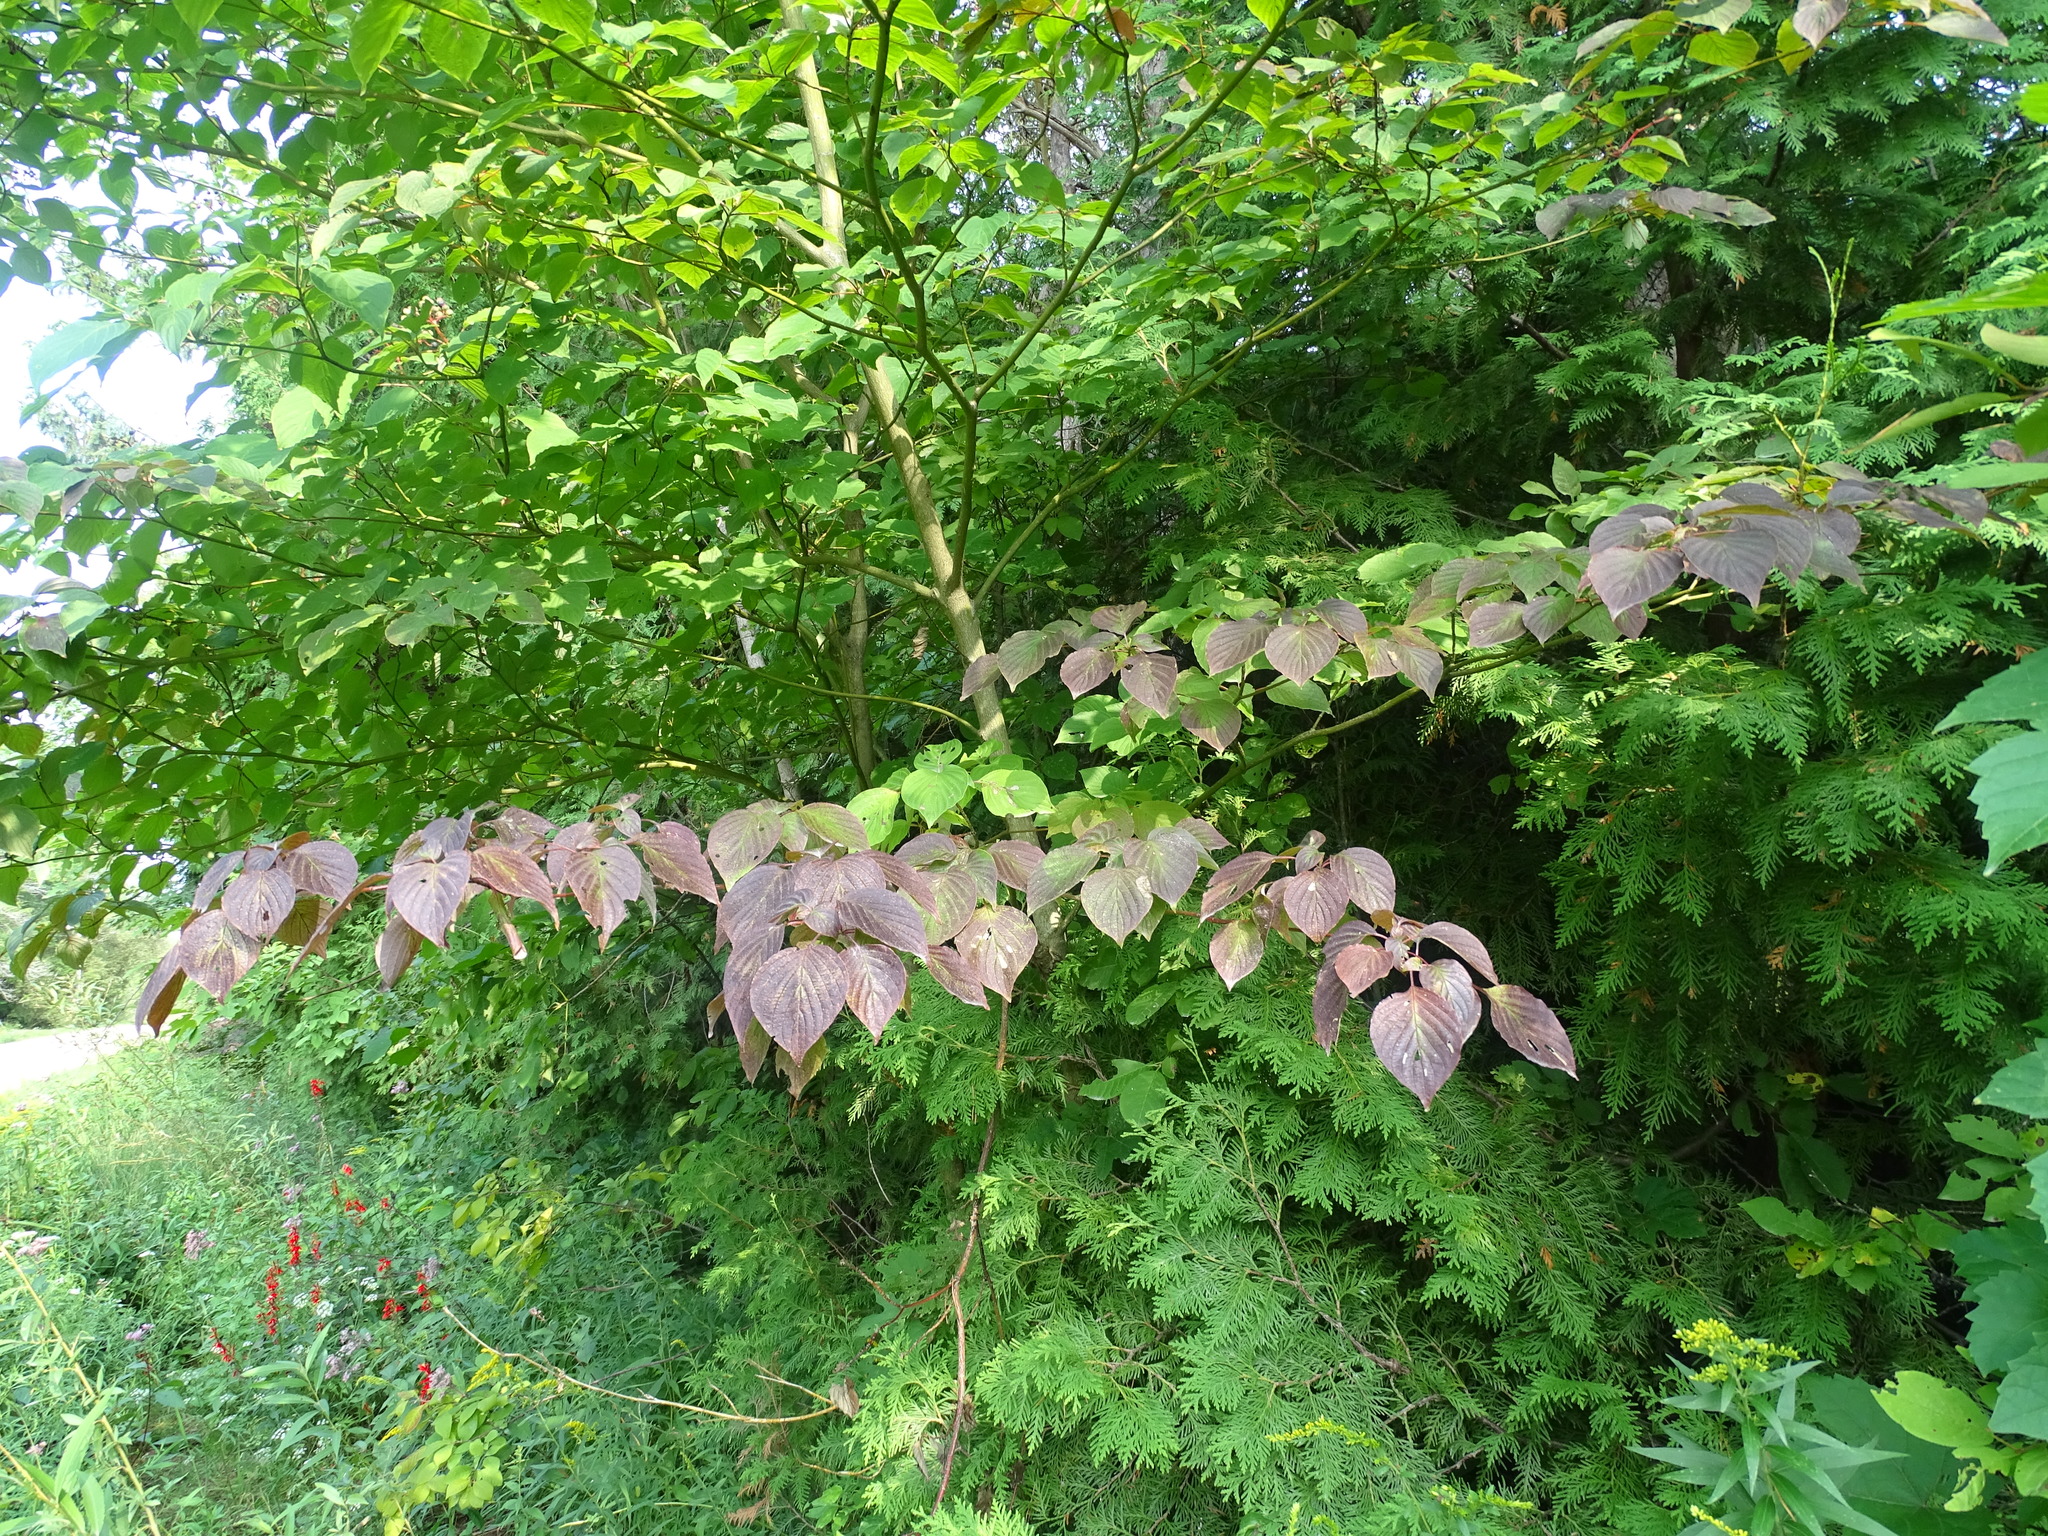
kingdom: Plantae
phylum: Tracheophyta
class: Magnoliopsida
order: Cornales
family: Cornaceae
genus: Cornus
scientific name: Cornus alternifolia
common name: Pagoda dogwood
